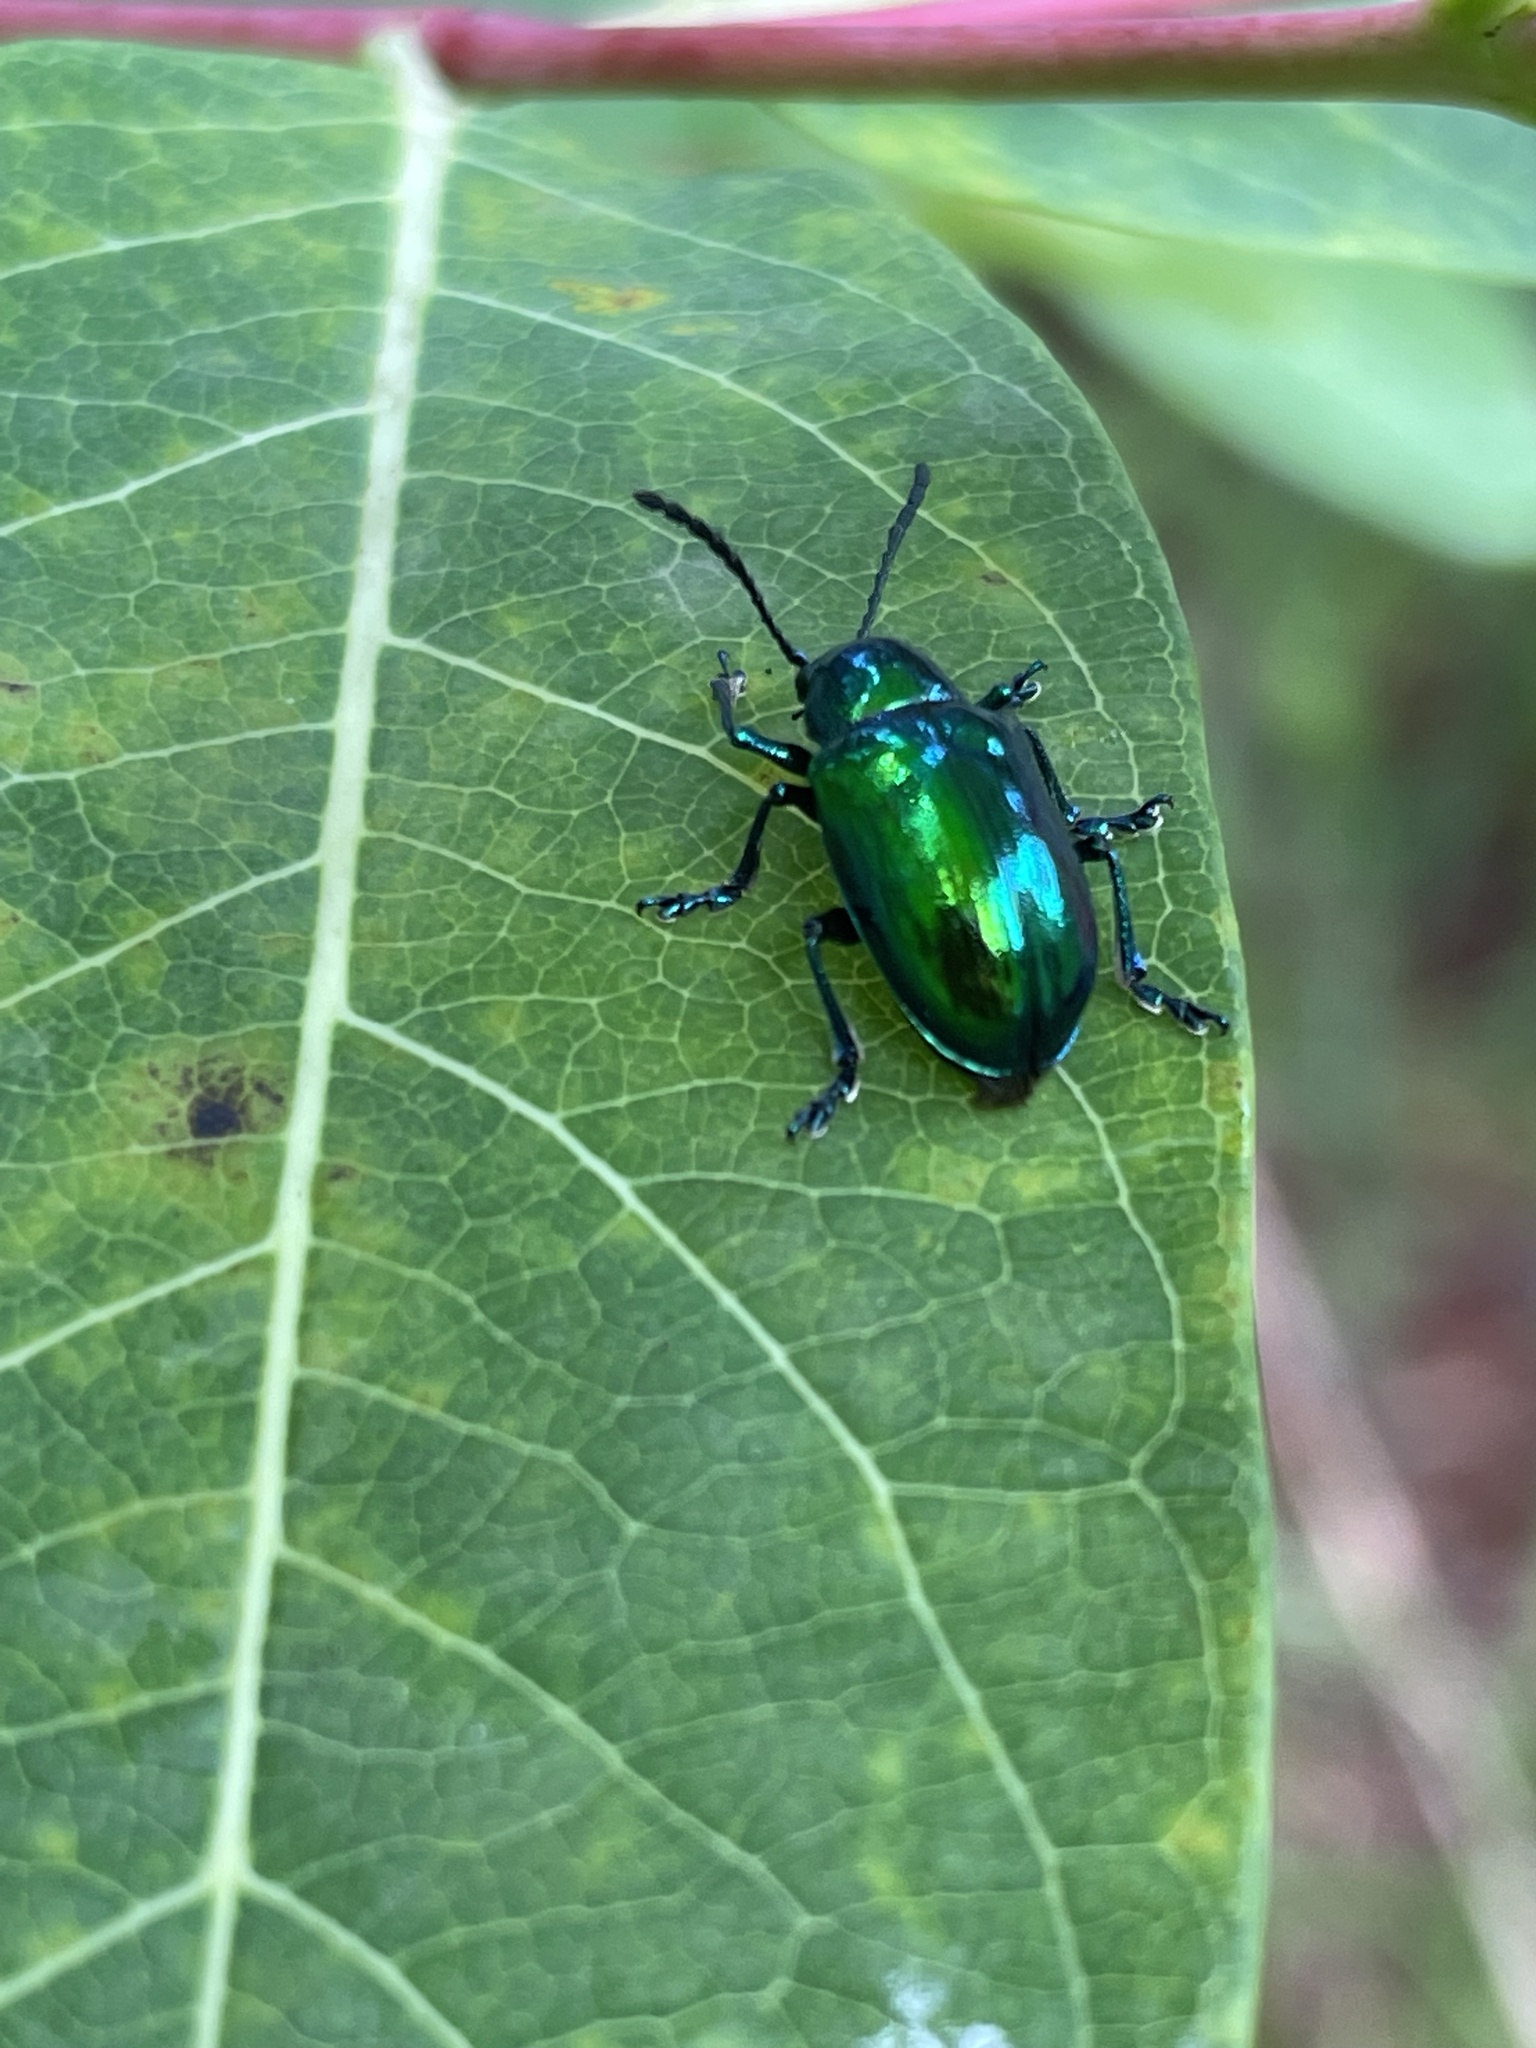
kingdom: Animalia
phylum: Arthropoda
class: Insecta
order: Coleoptera
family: Chrysomelidae
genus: Chrysochus
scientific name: Chrysochus auratus
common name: Dogbane leaf beetle
